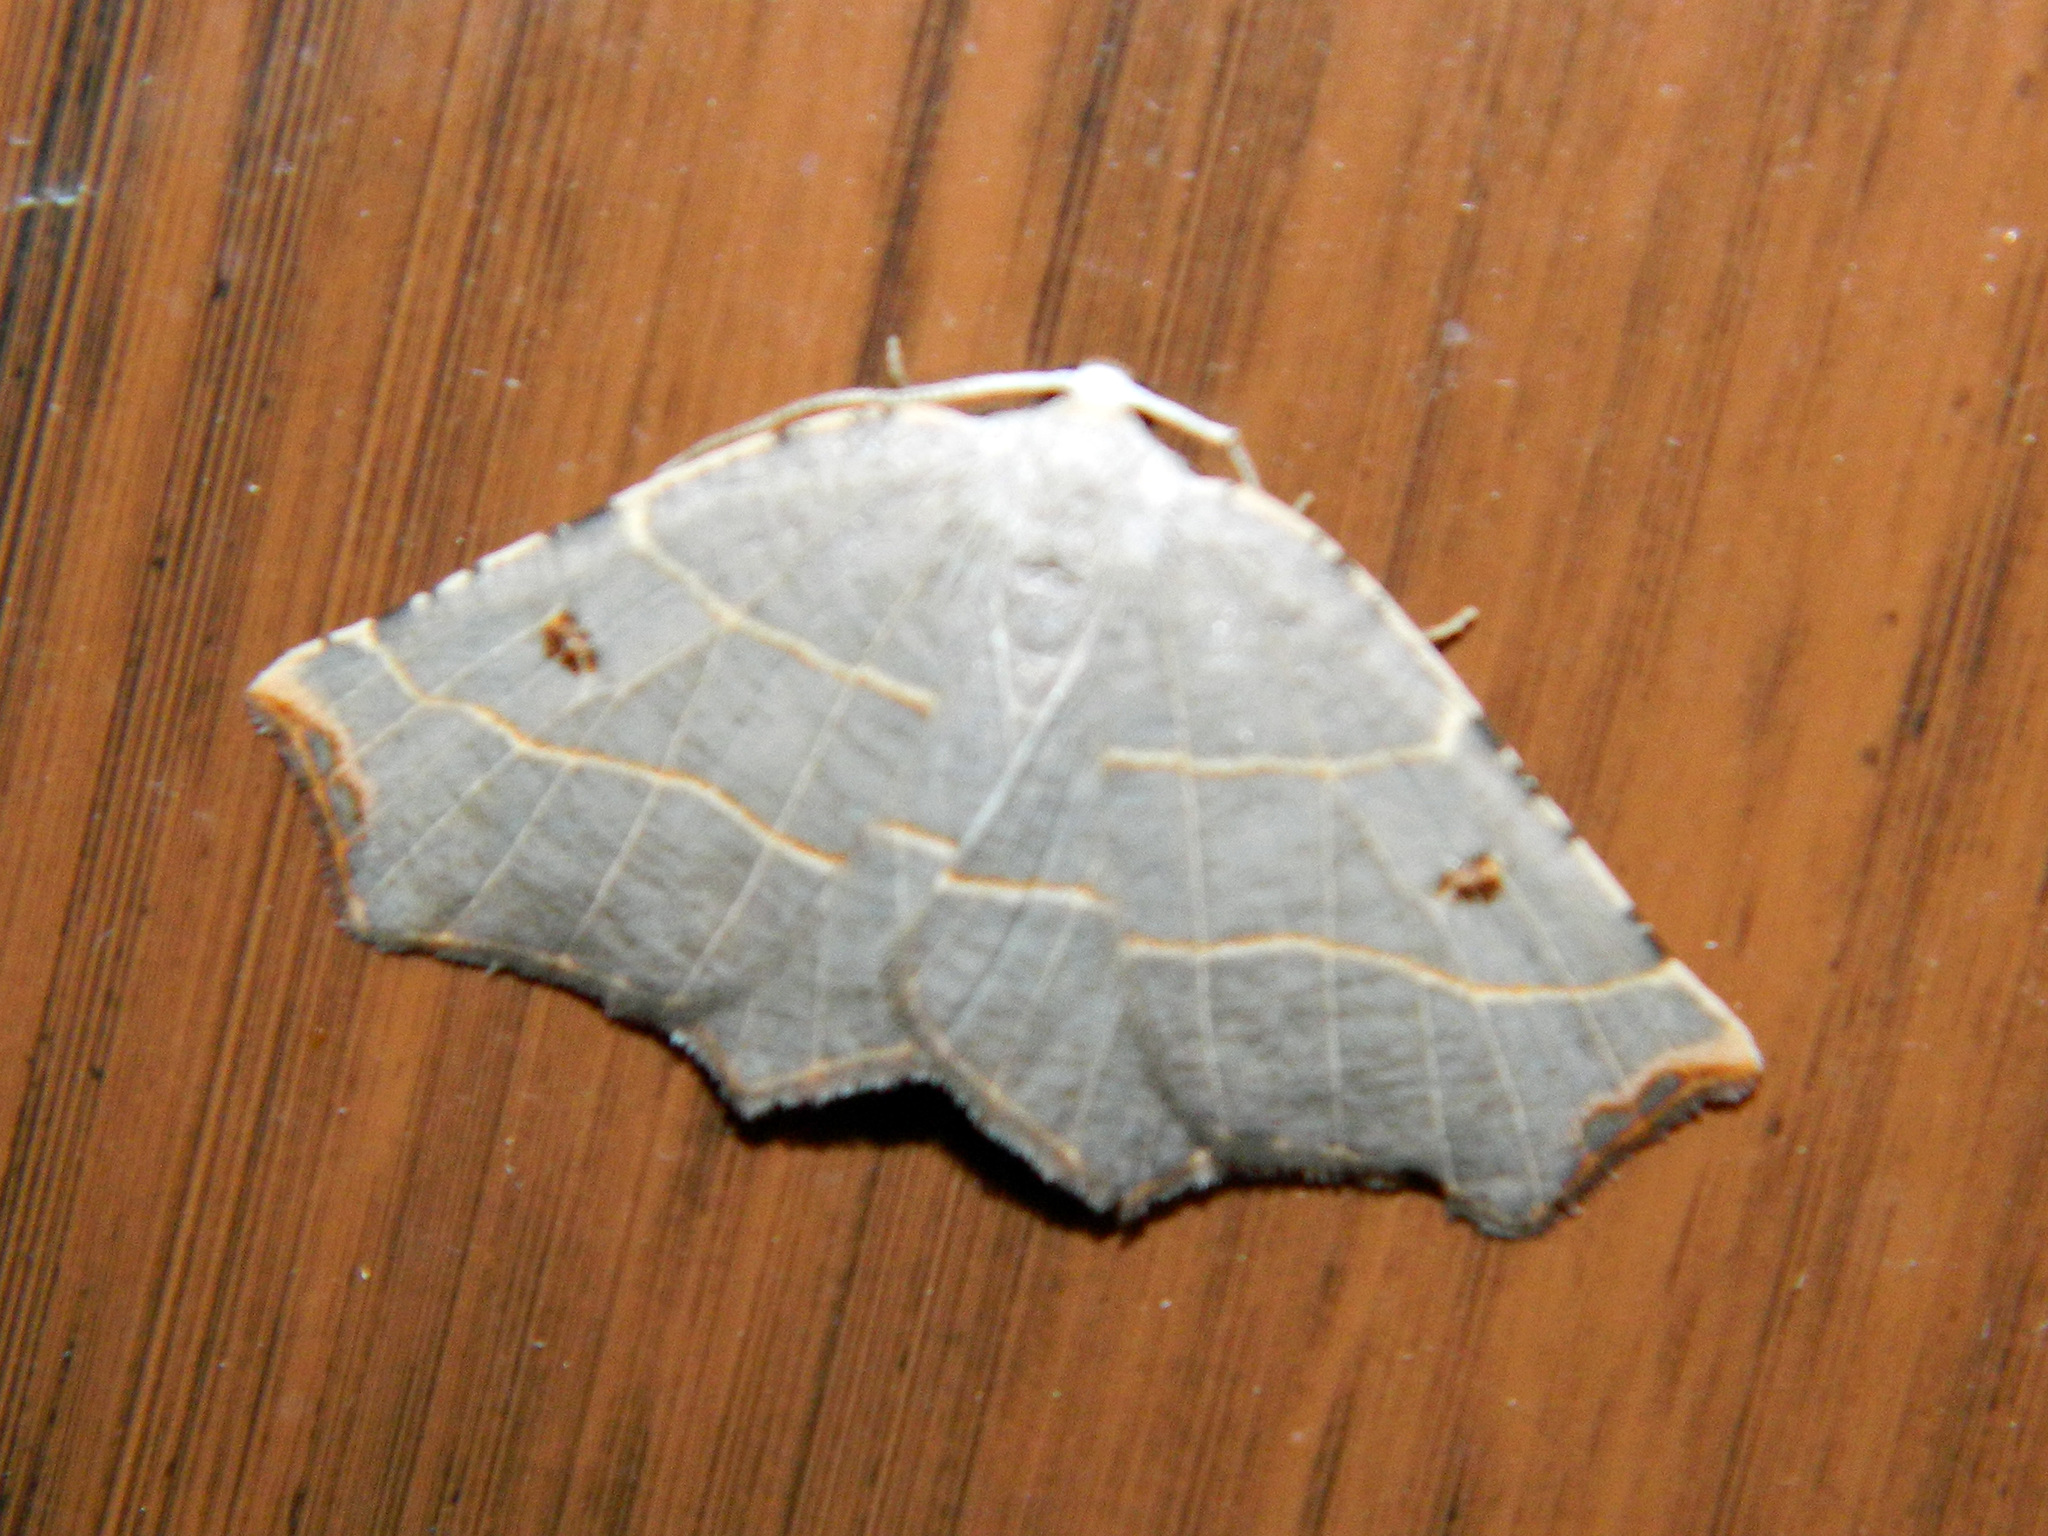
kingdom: Animalia
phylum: Arthropoda
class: Insecta
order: Lepidoptera
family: Geometridae
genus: Metanema
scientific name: Metanema inatomaria
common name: Pale metanema
